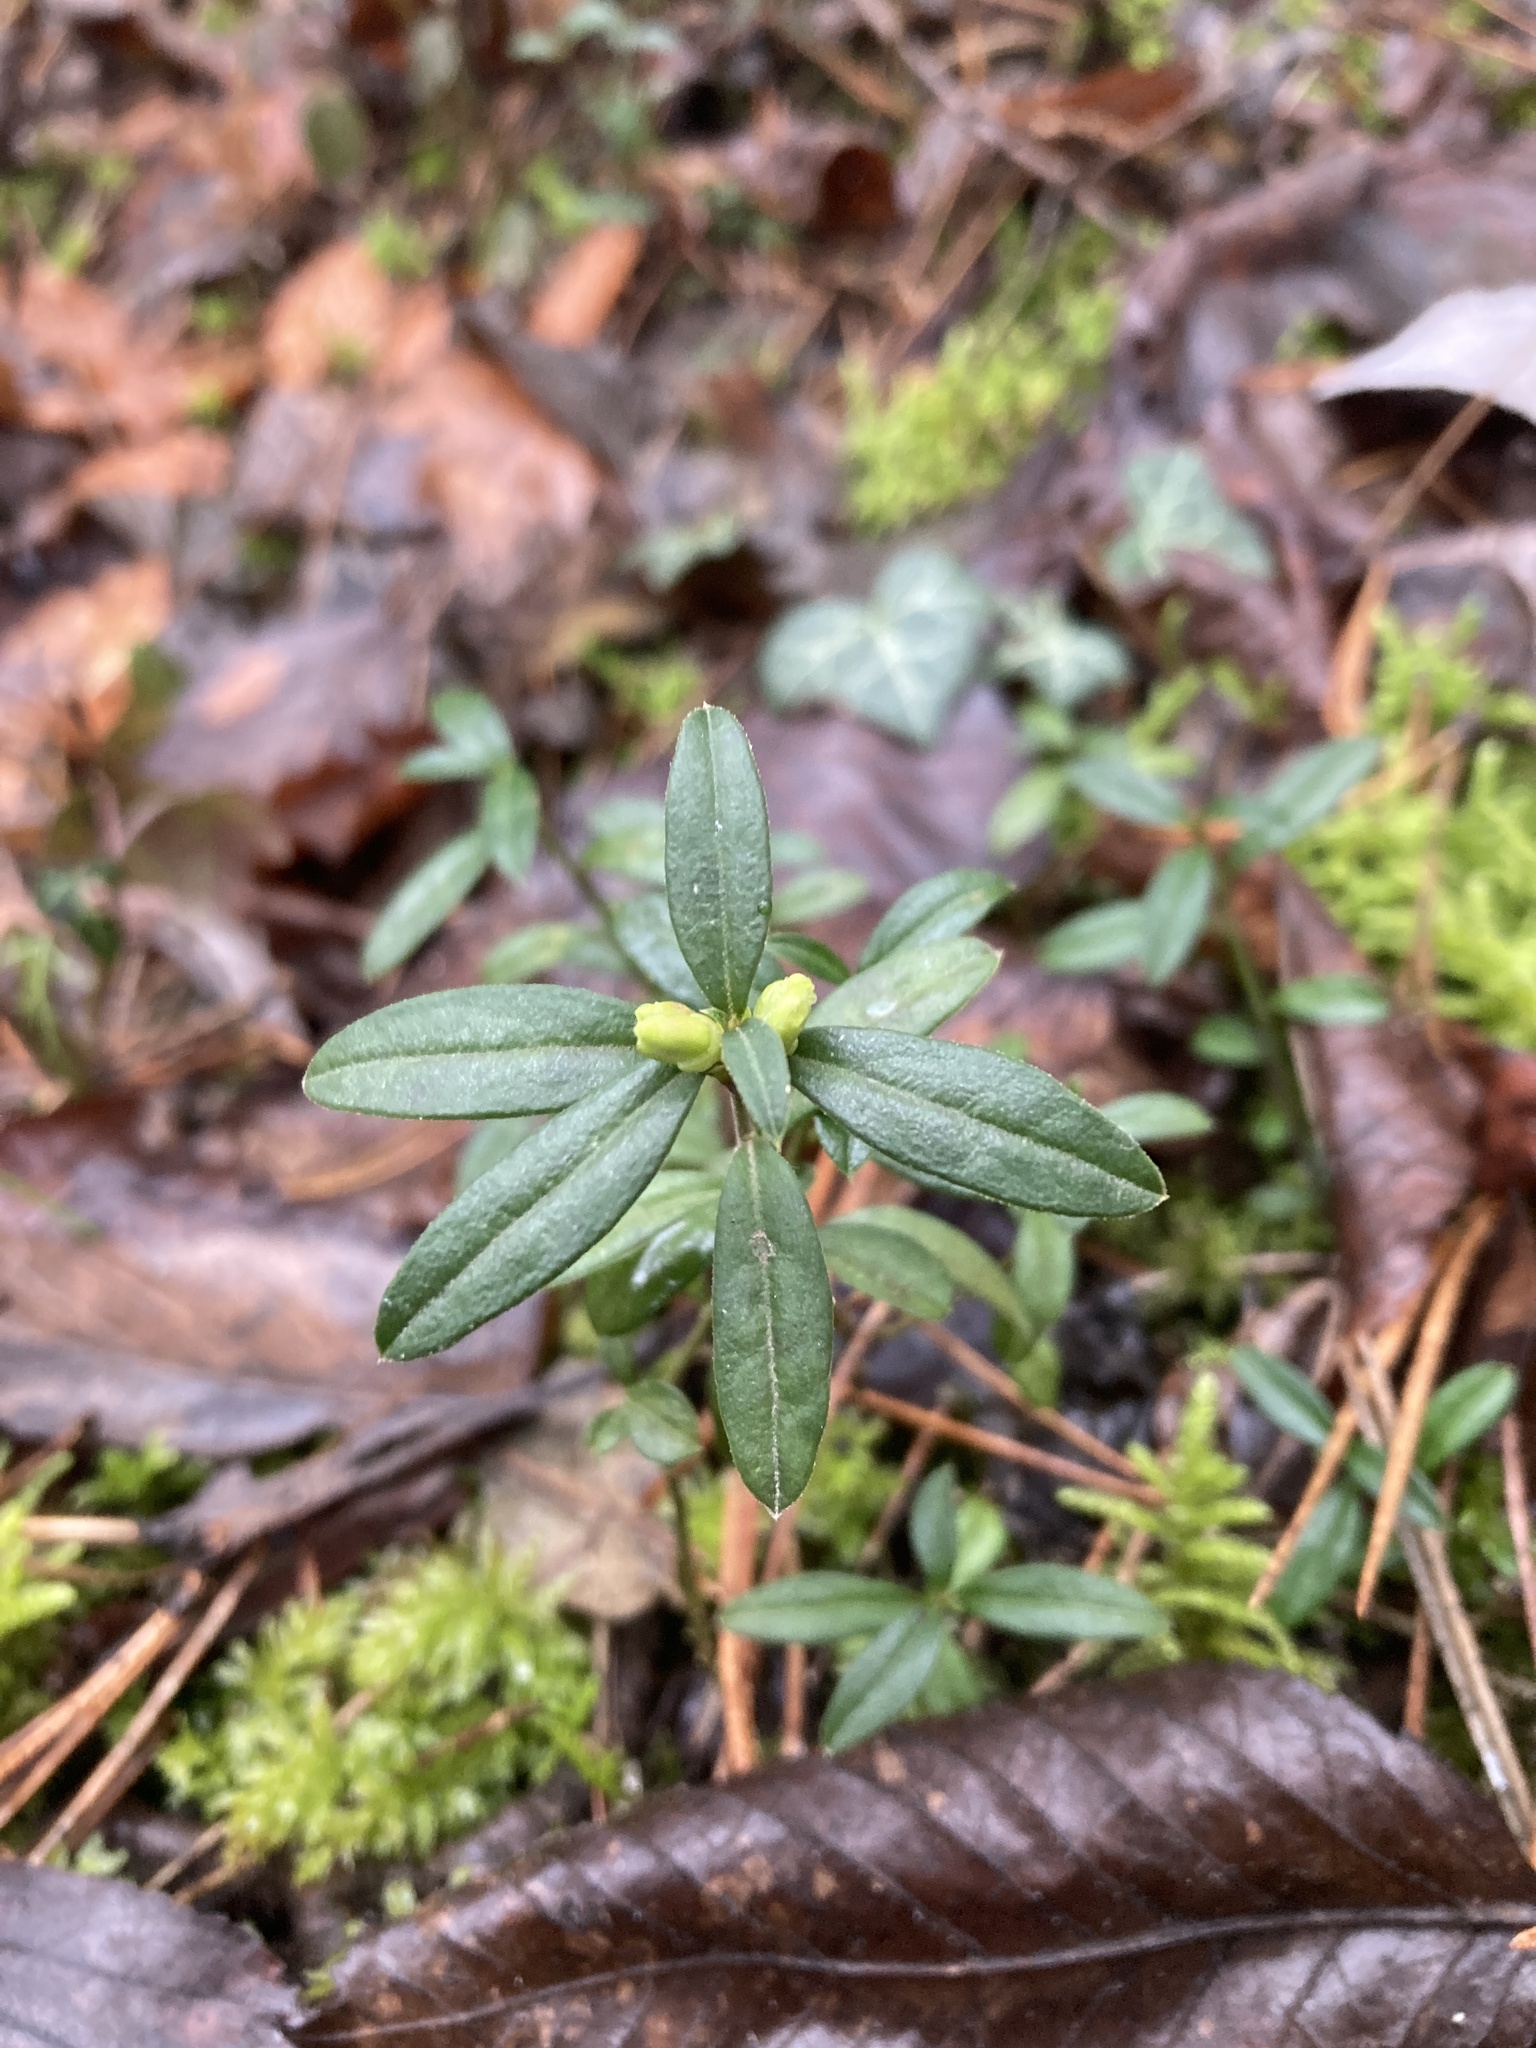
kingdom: Plantae
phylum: Tracheophyta
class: Magnoliopsida
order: Fabales
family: Polygalaceae
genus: Polygaloides
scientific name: Polygaloides chamaebuxus
